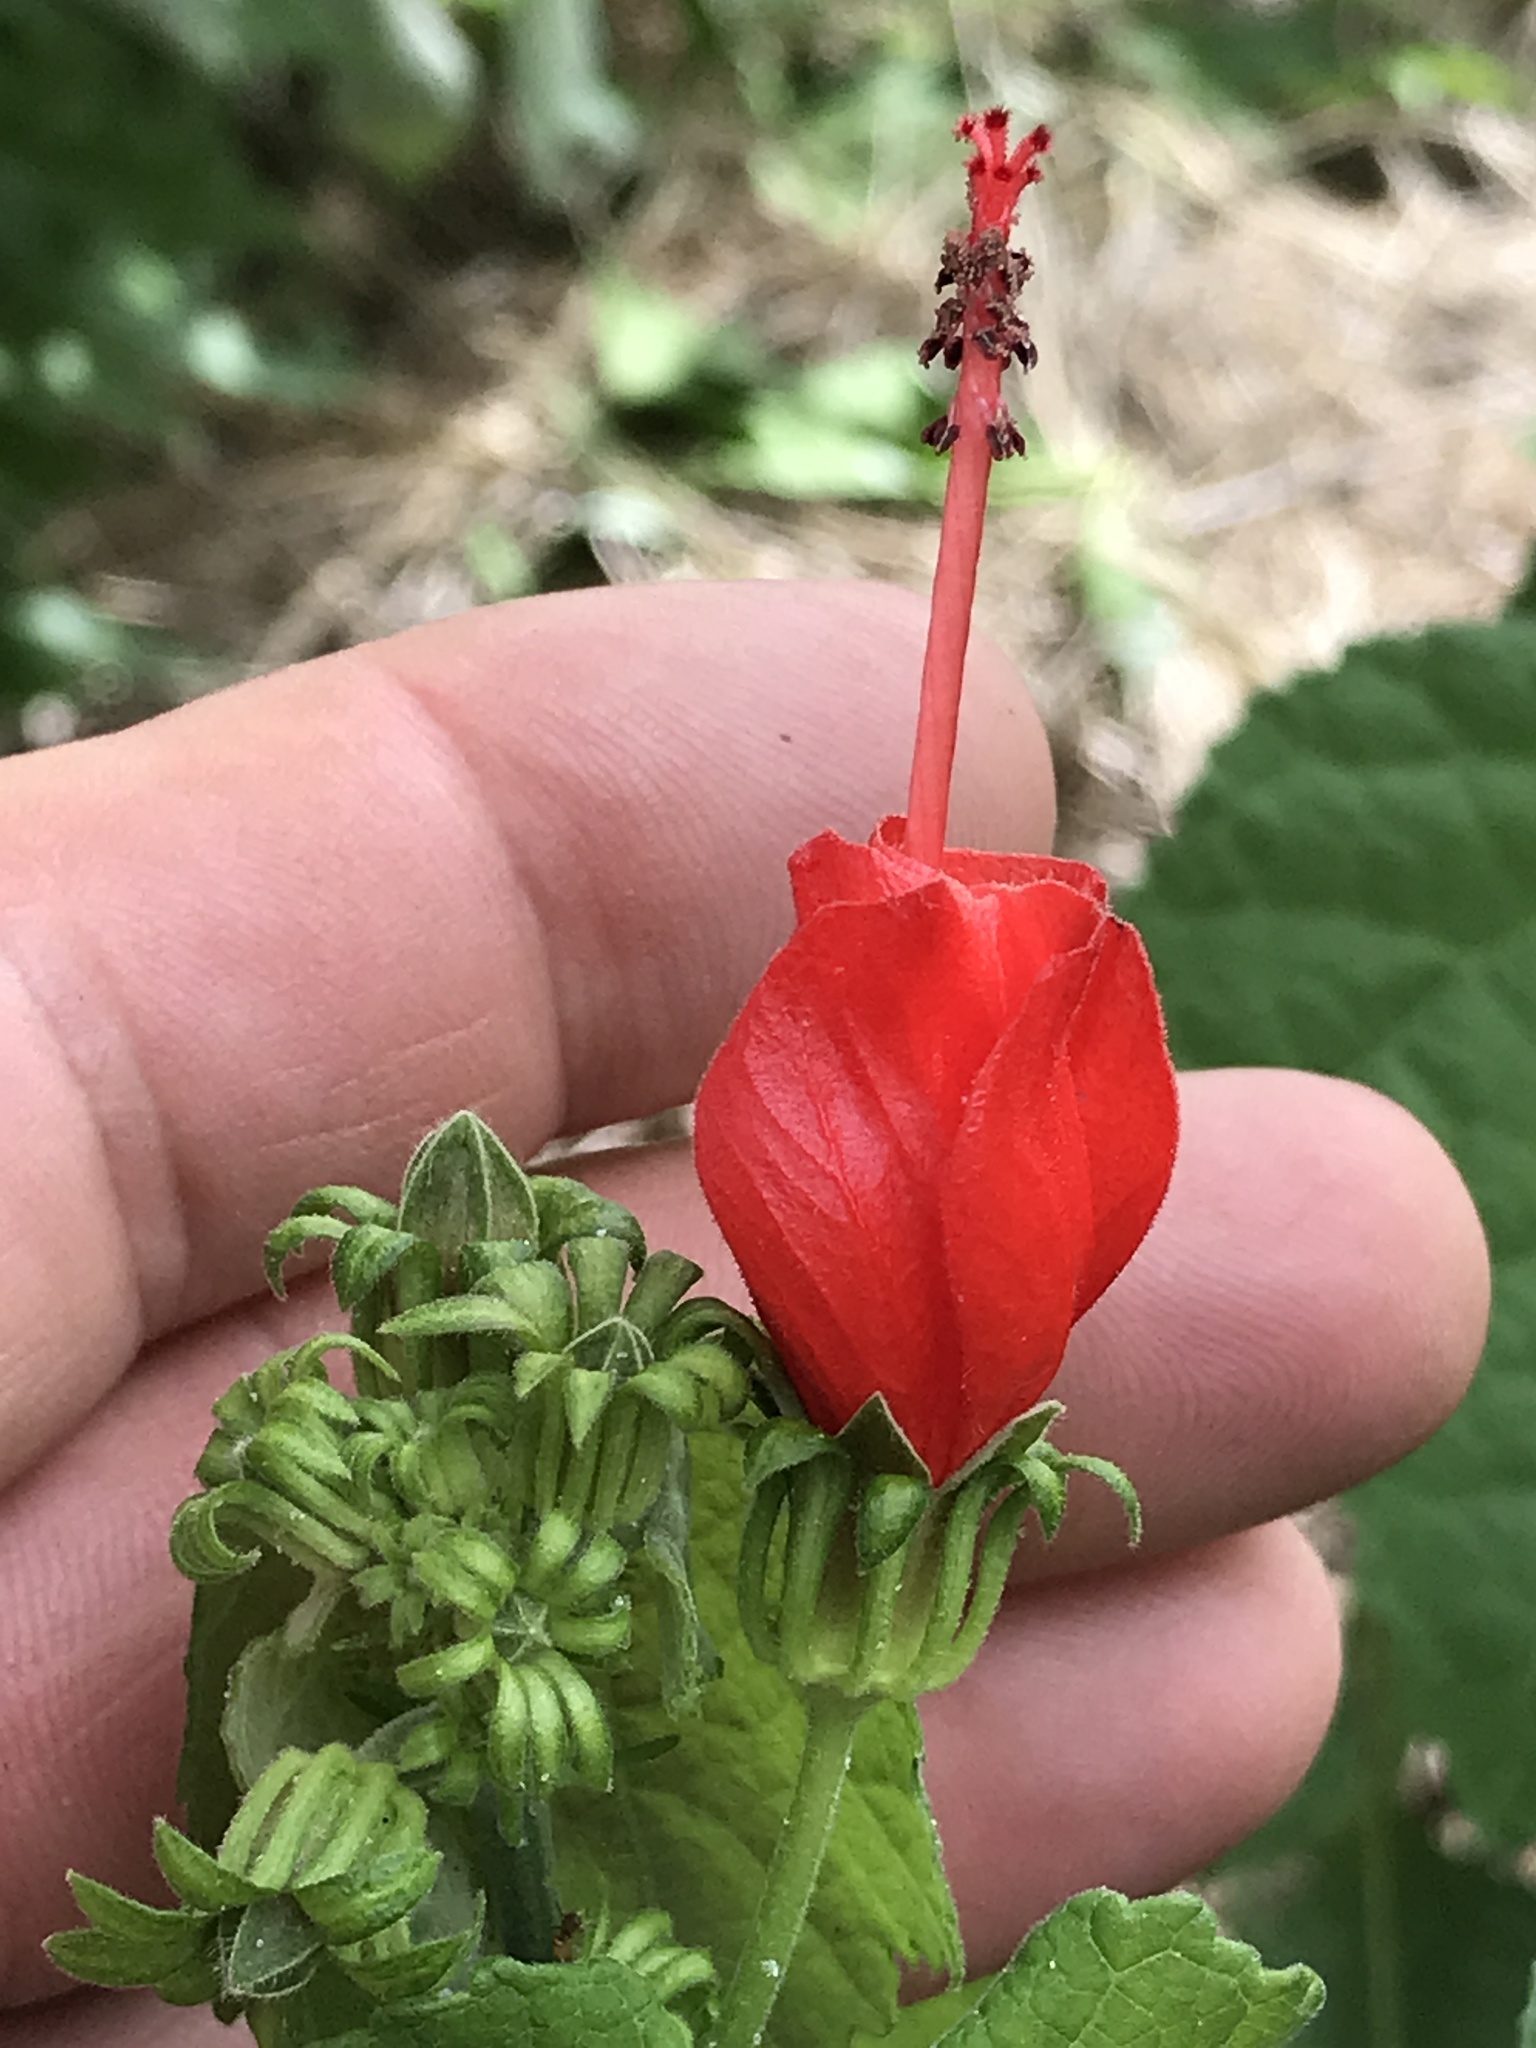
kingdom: Plantae
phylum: Tracheophyta
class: Magnoliopsida
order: Malvales
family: Malvaceae
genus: Malvaviscus
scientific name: Malvaviscus arboreus
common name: Wax mallow
